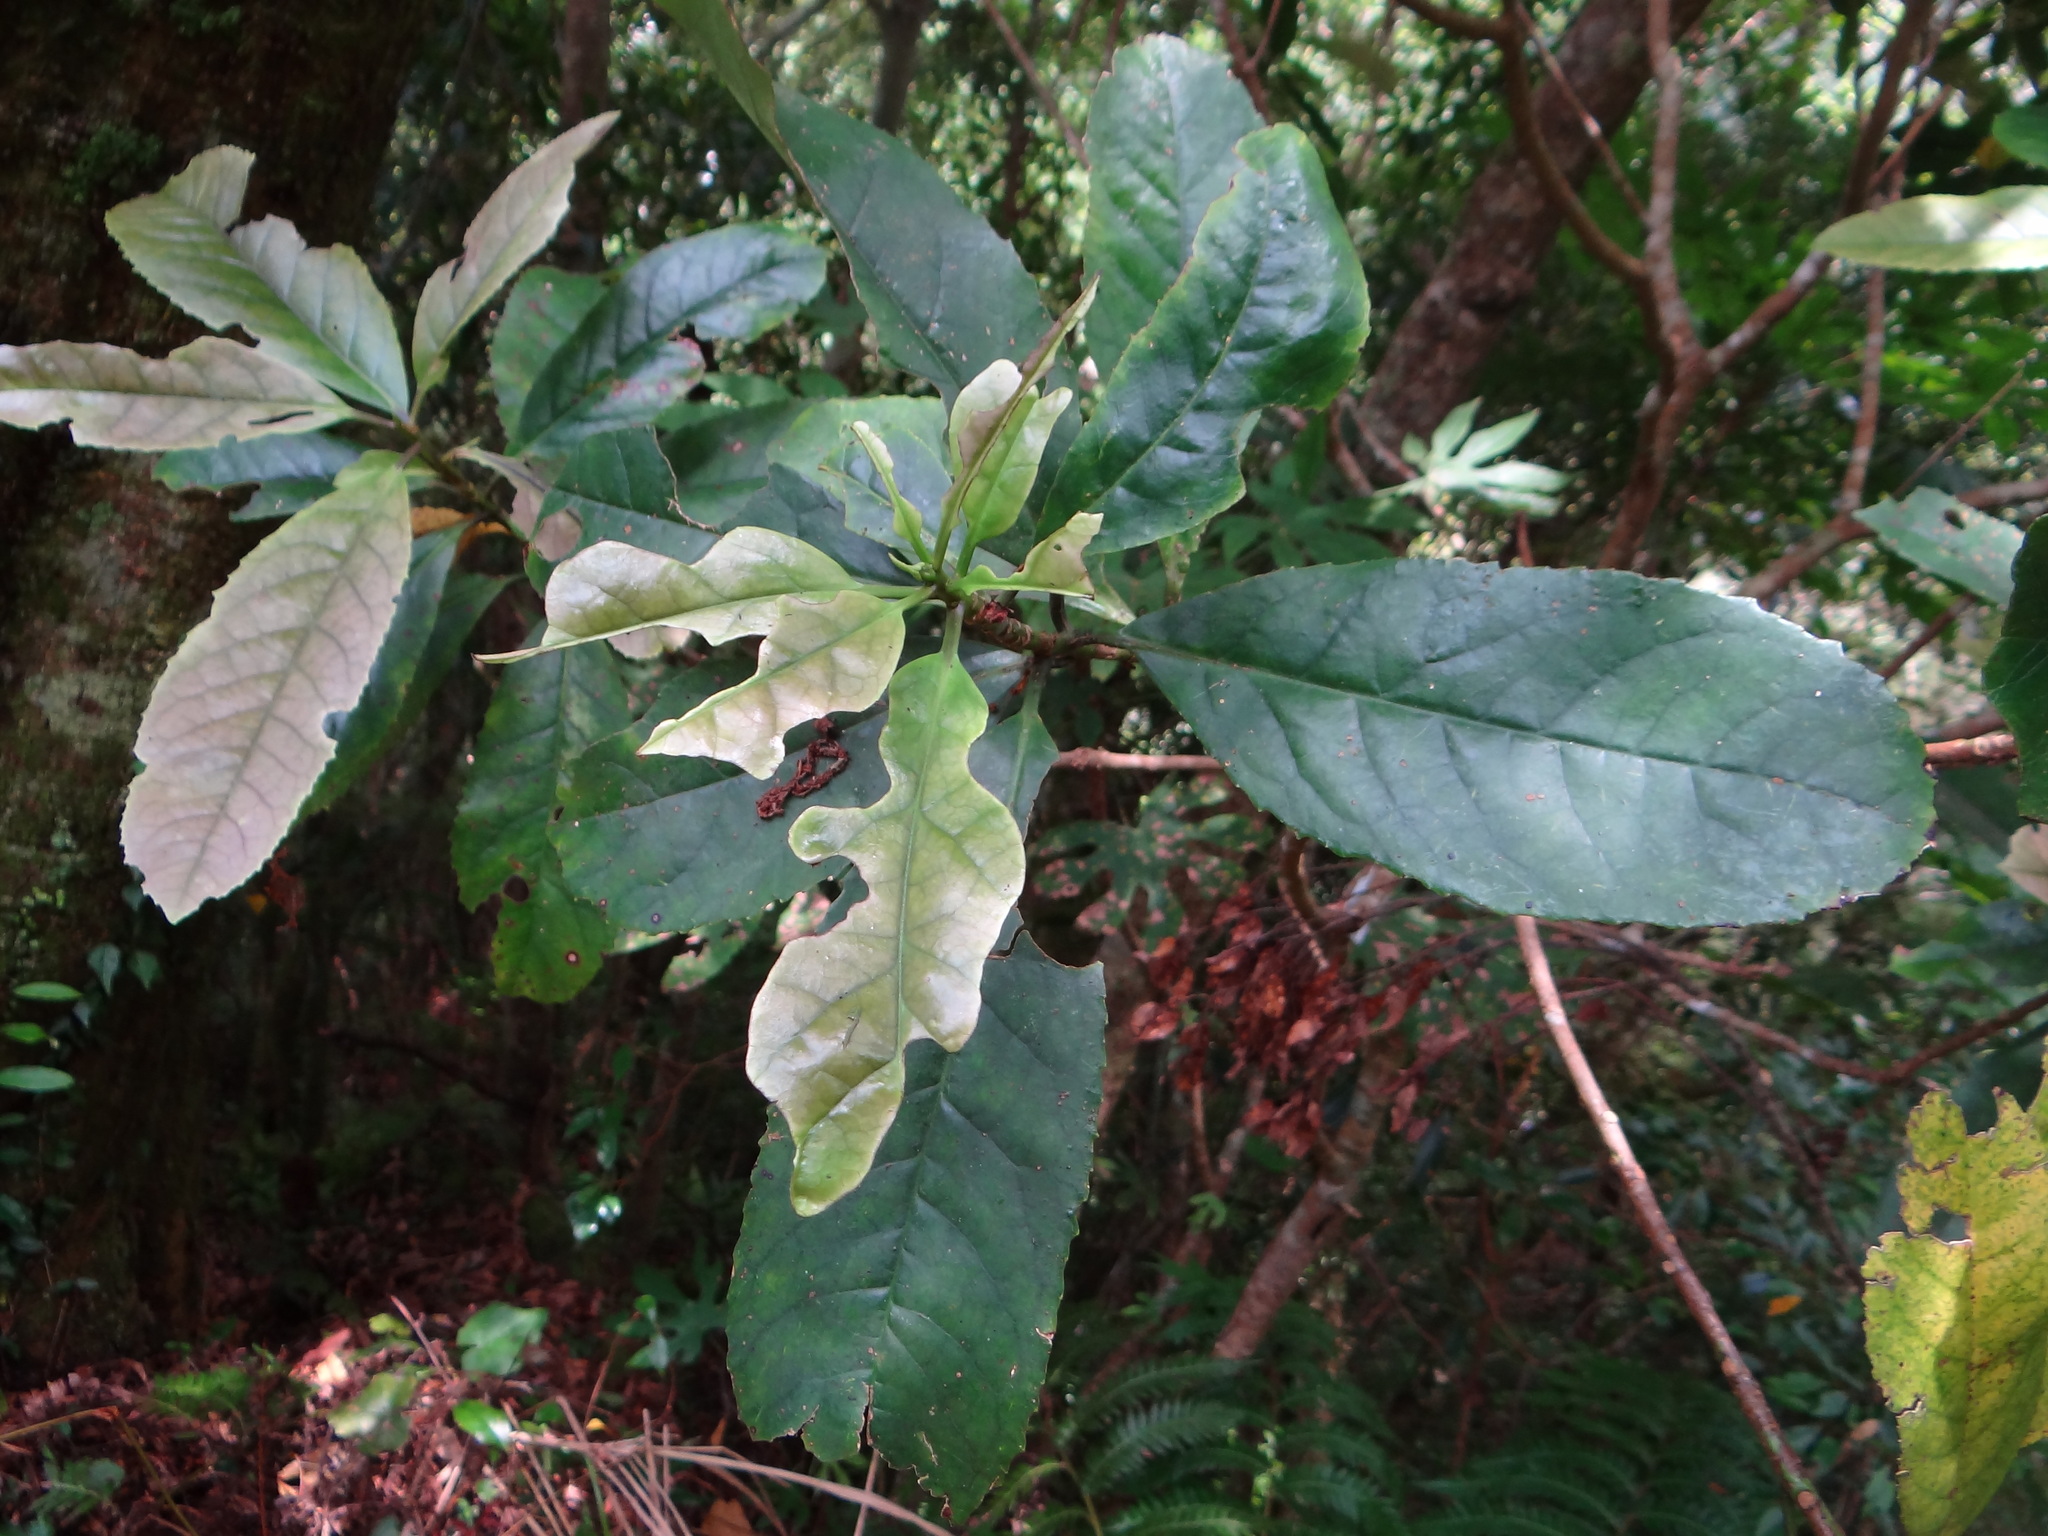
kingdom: Plantae
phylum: Tracheophyta
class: Magnoliopsida
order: Ericales
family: Symplocaceae
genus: Symplocos
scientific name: Symplocos acuminata
